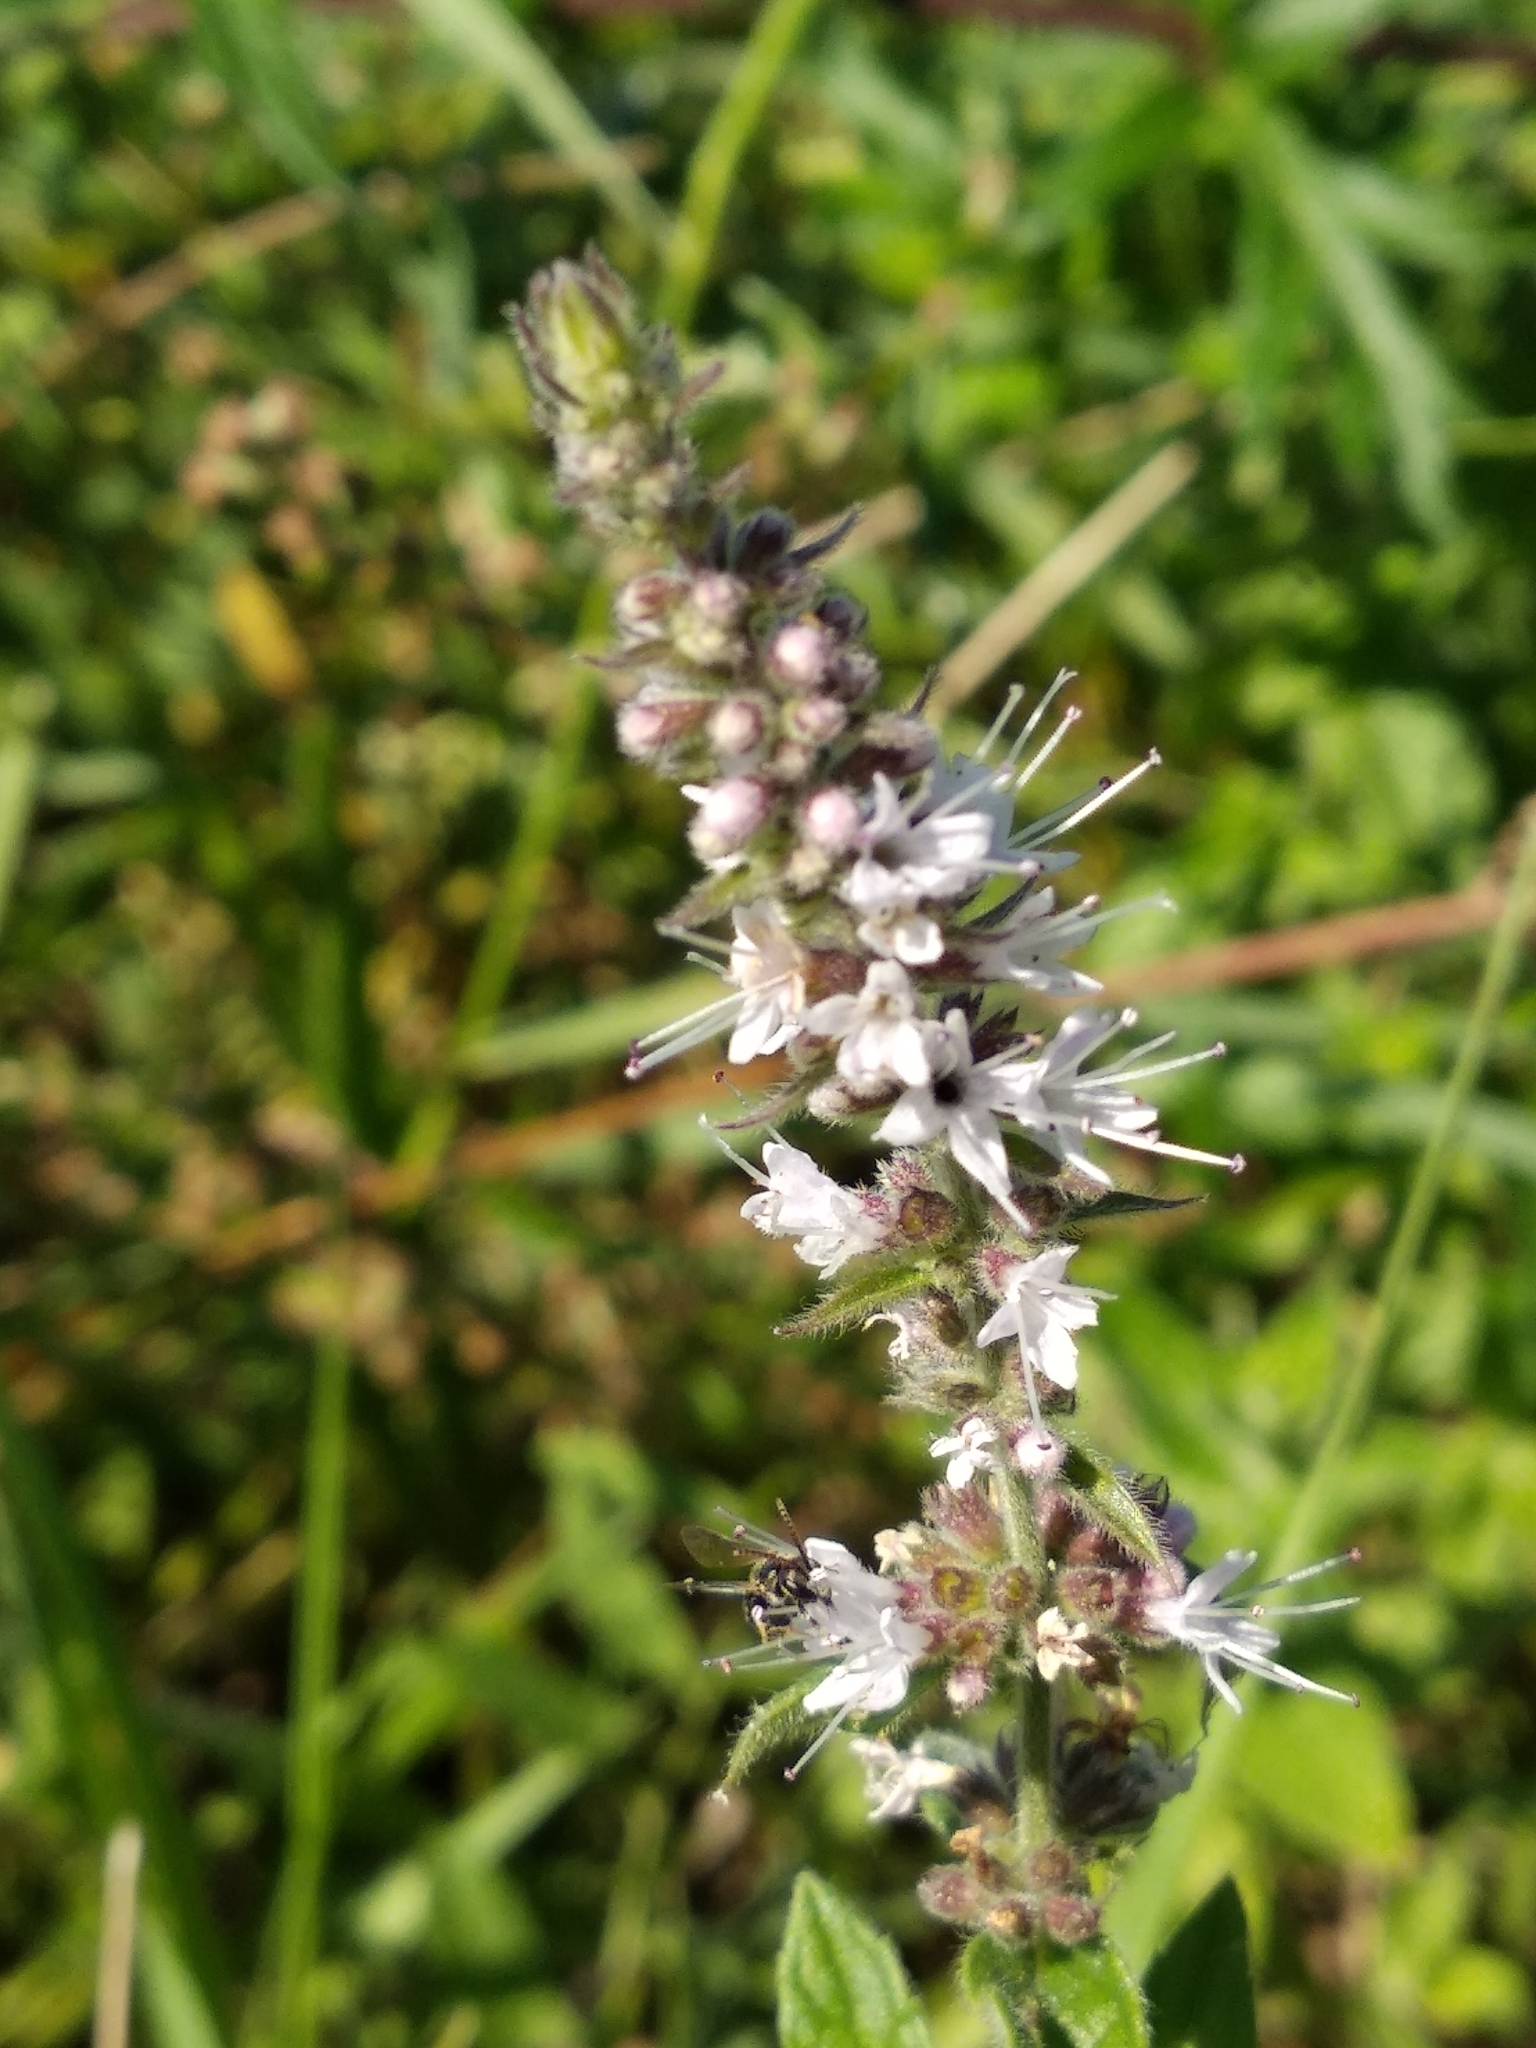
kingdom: Plantae
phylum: Tracheophyta
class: Magnoliopsida
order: Lamiales
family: Lamiaceae
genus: Mentha
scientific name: Mentha spicata
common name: Spearmint
